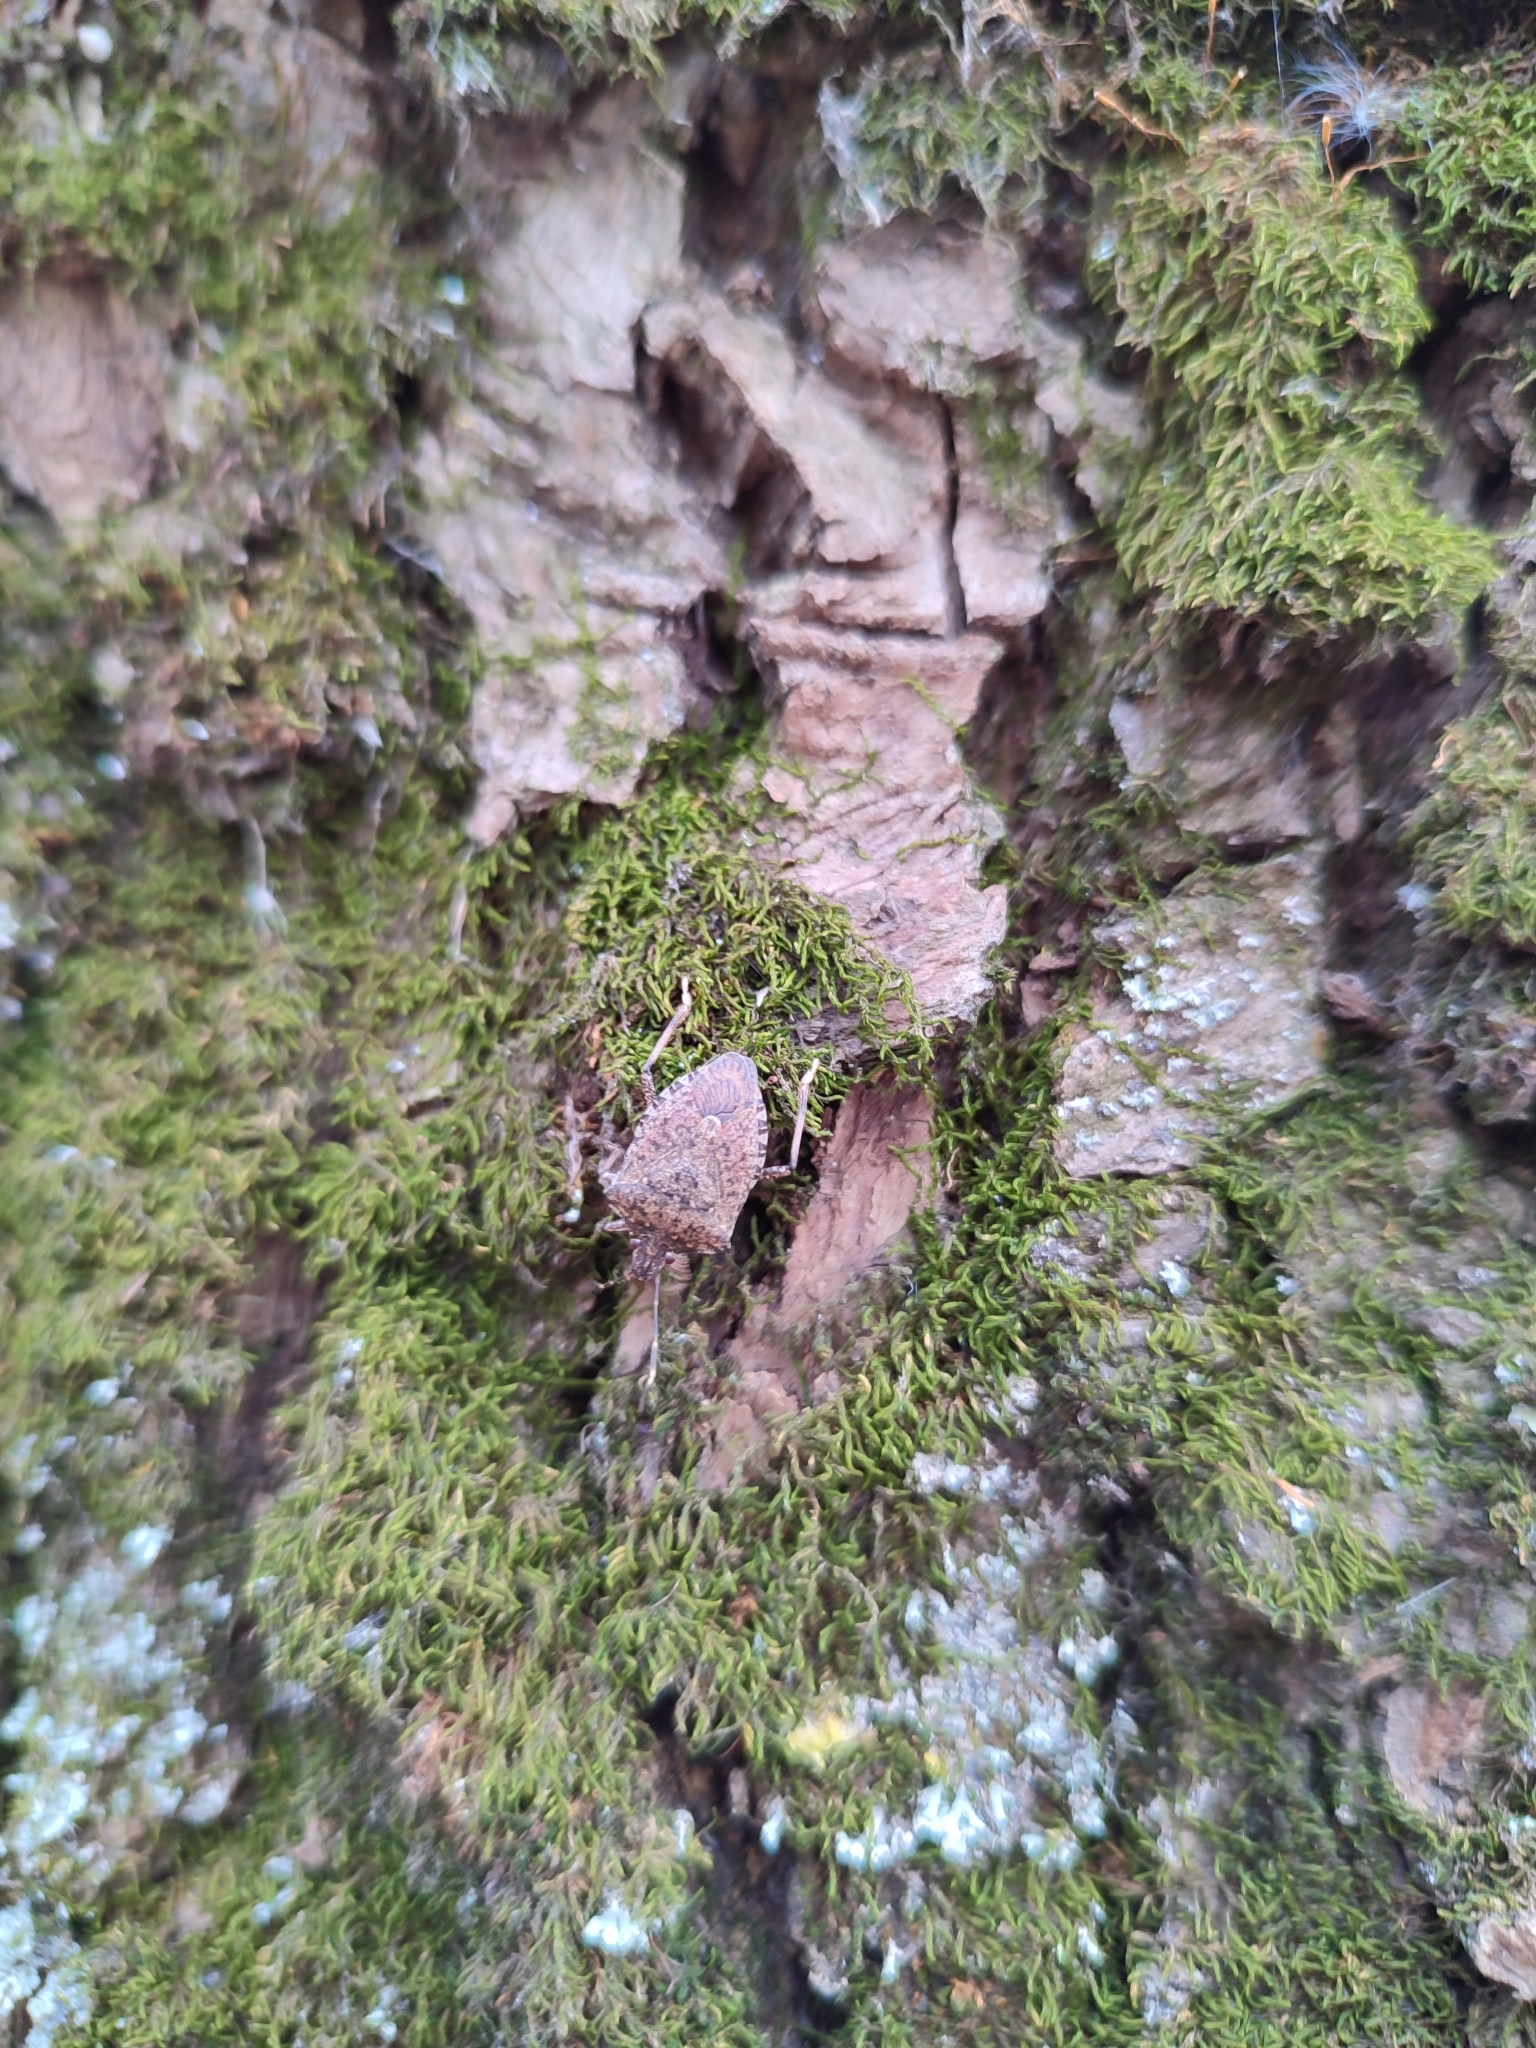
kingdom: Animalia
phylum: Arthropoda
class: Insecta
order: Hemiptera
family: Pentatomidae
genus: Halyomorpha
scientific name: Halyomorpha halys
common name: Brown marmorated stink bug
